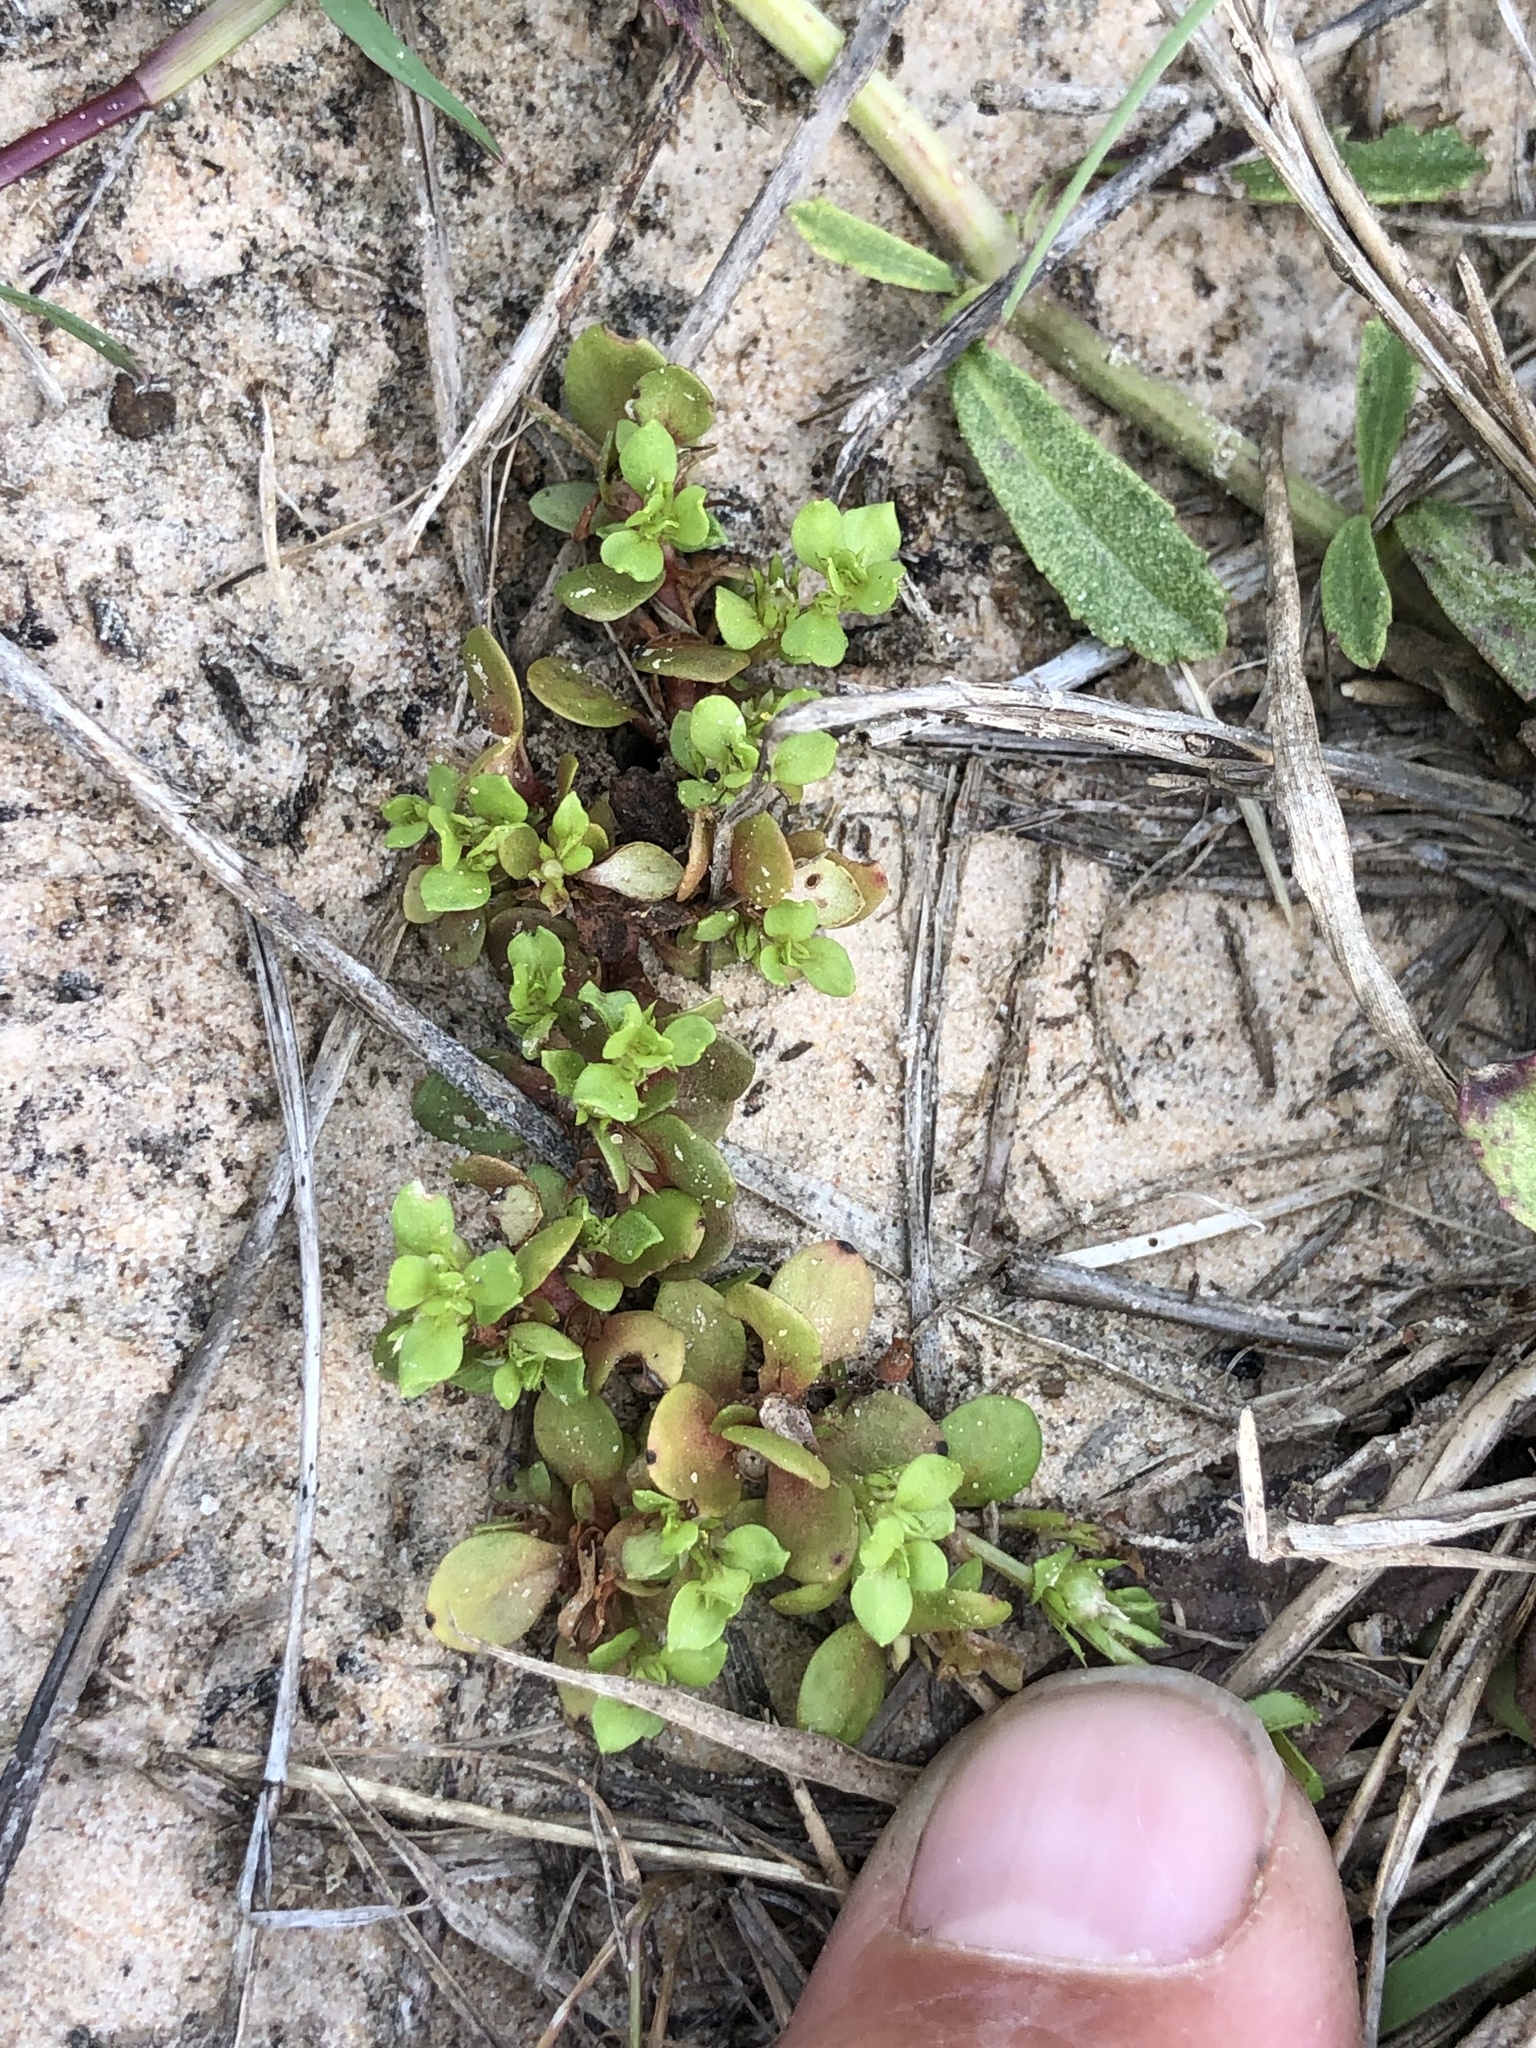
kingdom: Plantae
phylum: Tracheophyta
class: Magnoliopsida
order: Ericales
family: Primulaceae
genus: Lysimachia
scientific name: Lysimachia minima
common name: Chaffweed
